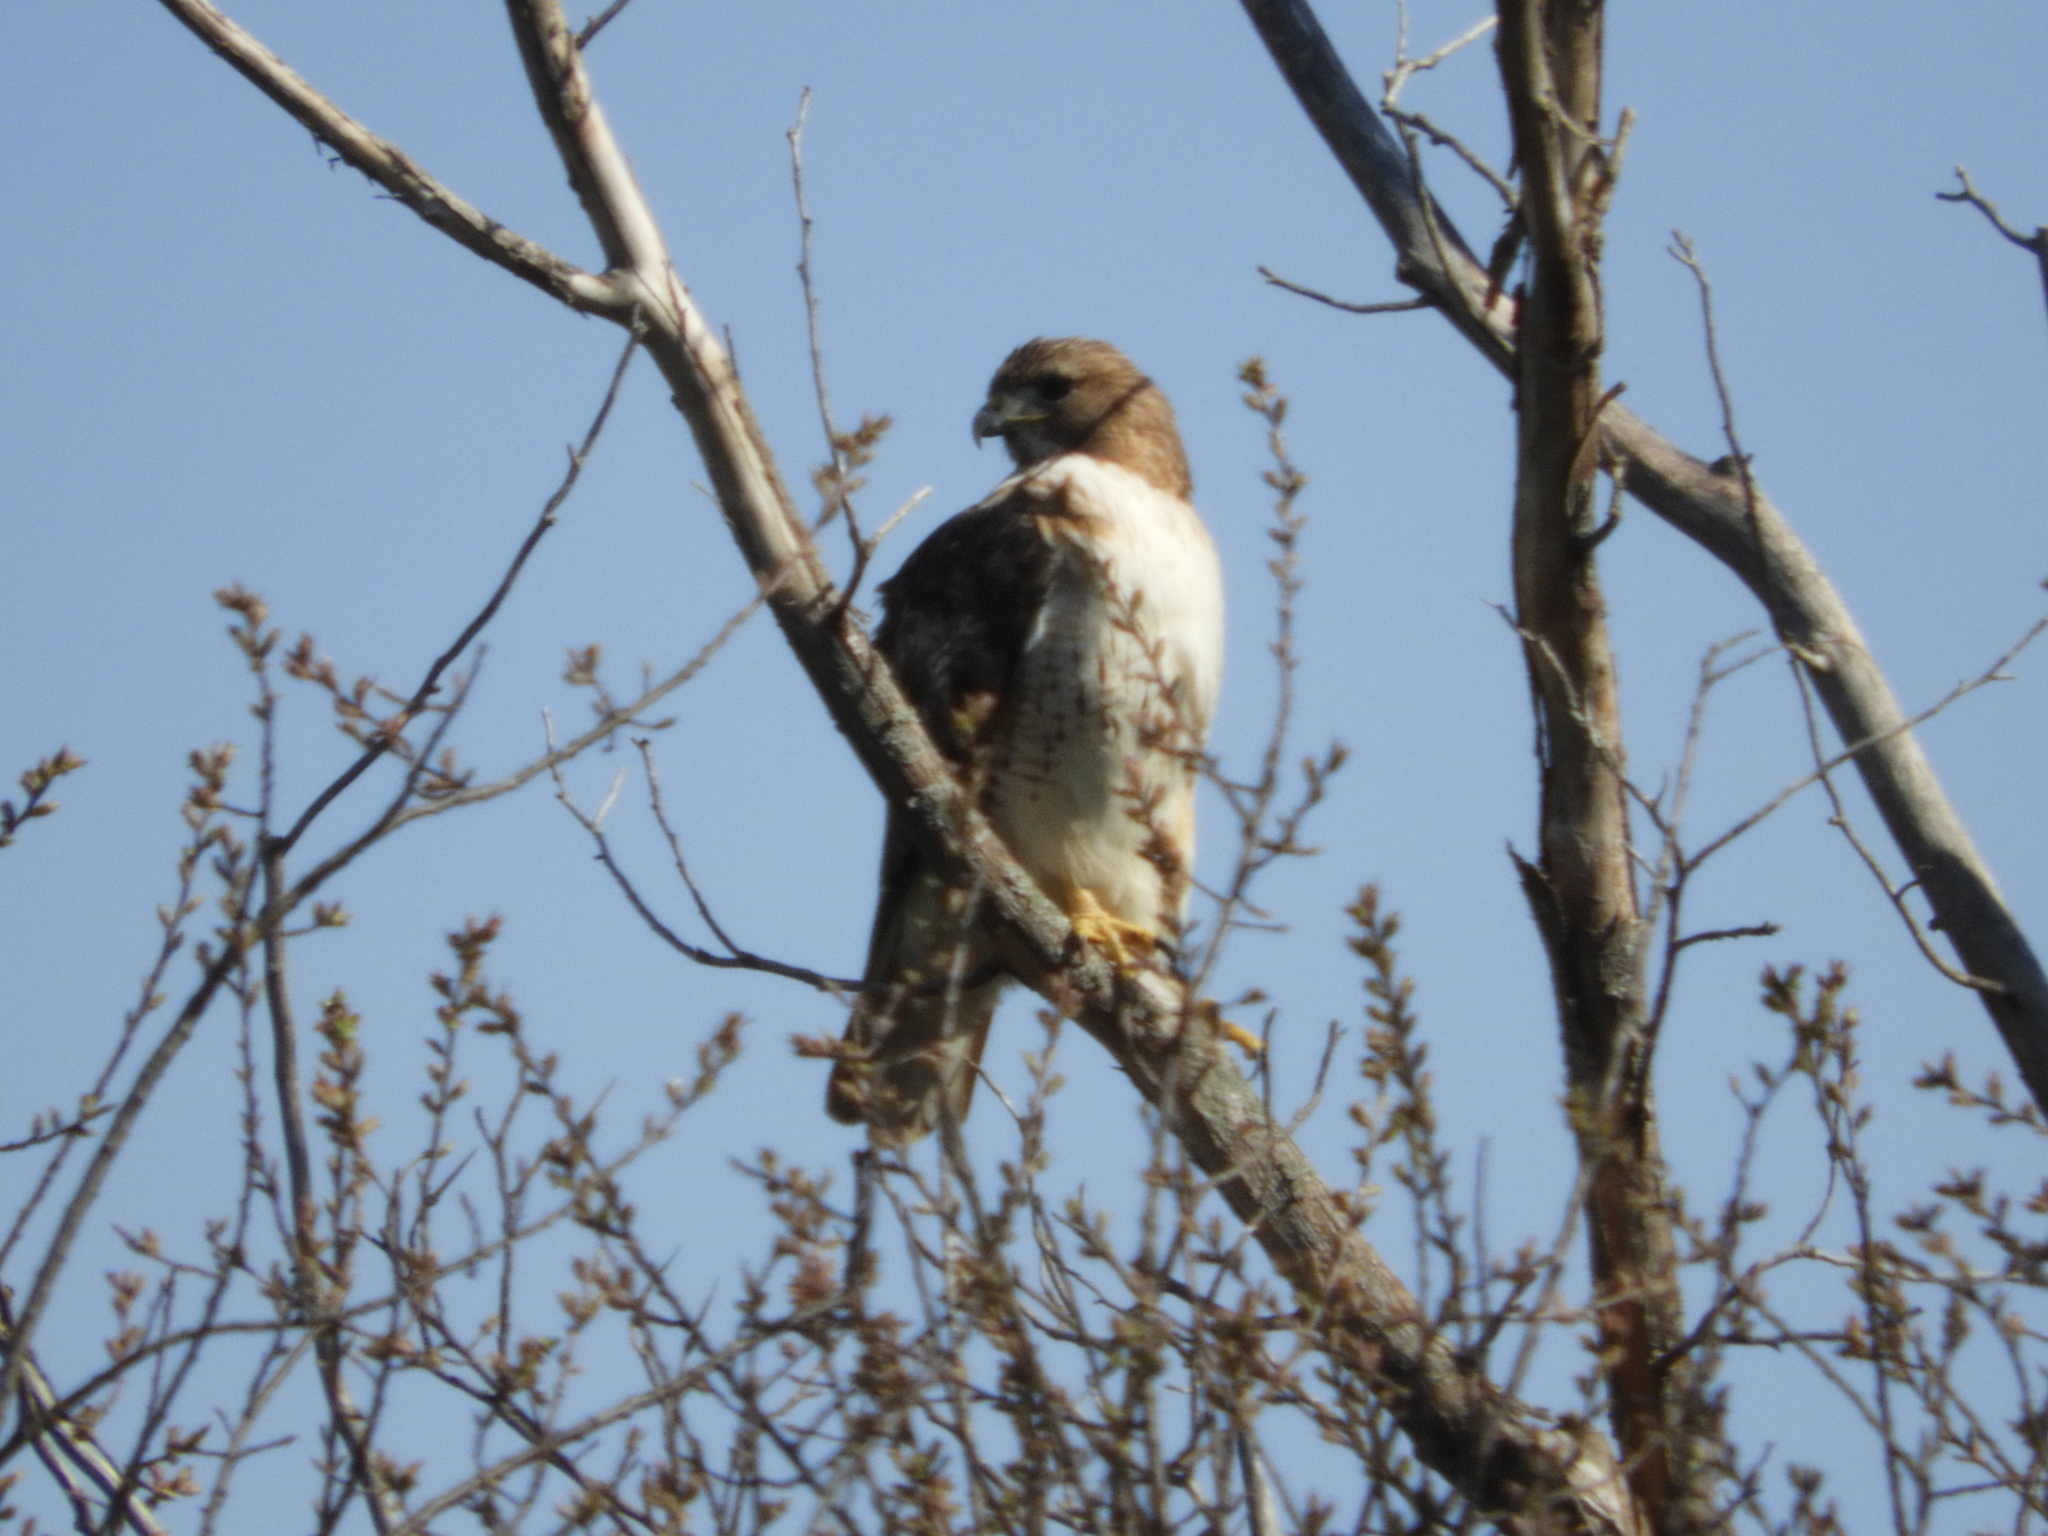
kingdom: Animalia
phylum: Chordata
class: Aves
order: Accipitriformes
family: Accipitridae
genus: Buteo
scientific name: Buteo jamaicensis
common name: Red-tailed hawk
